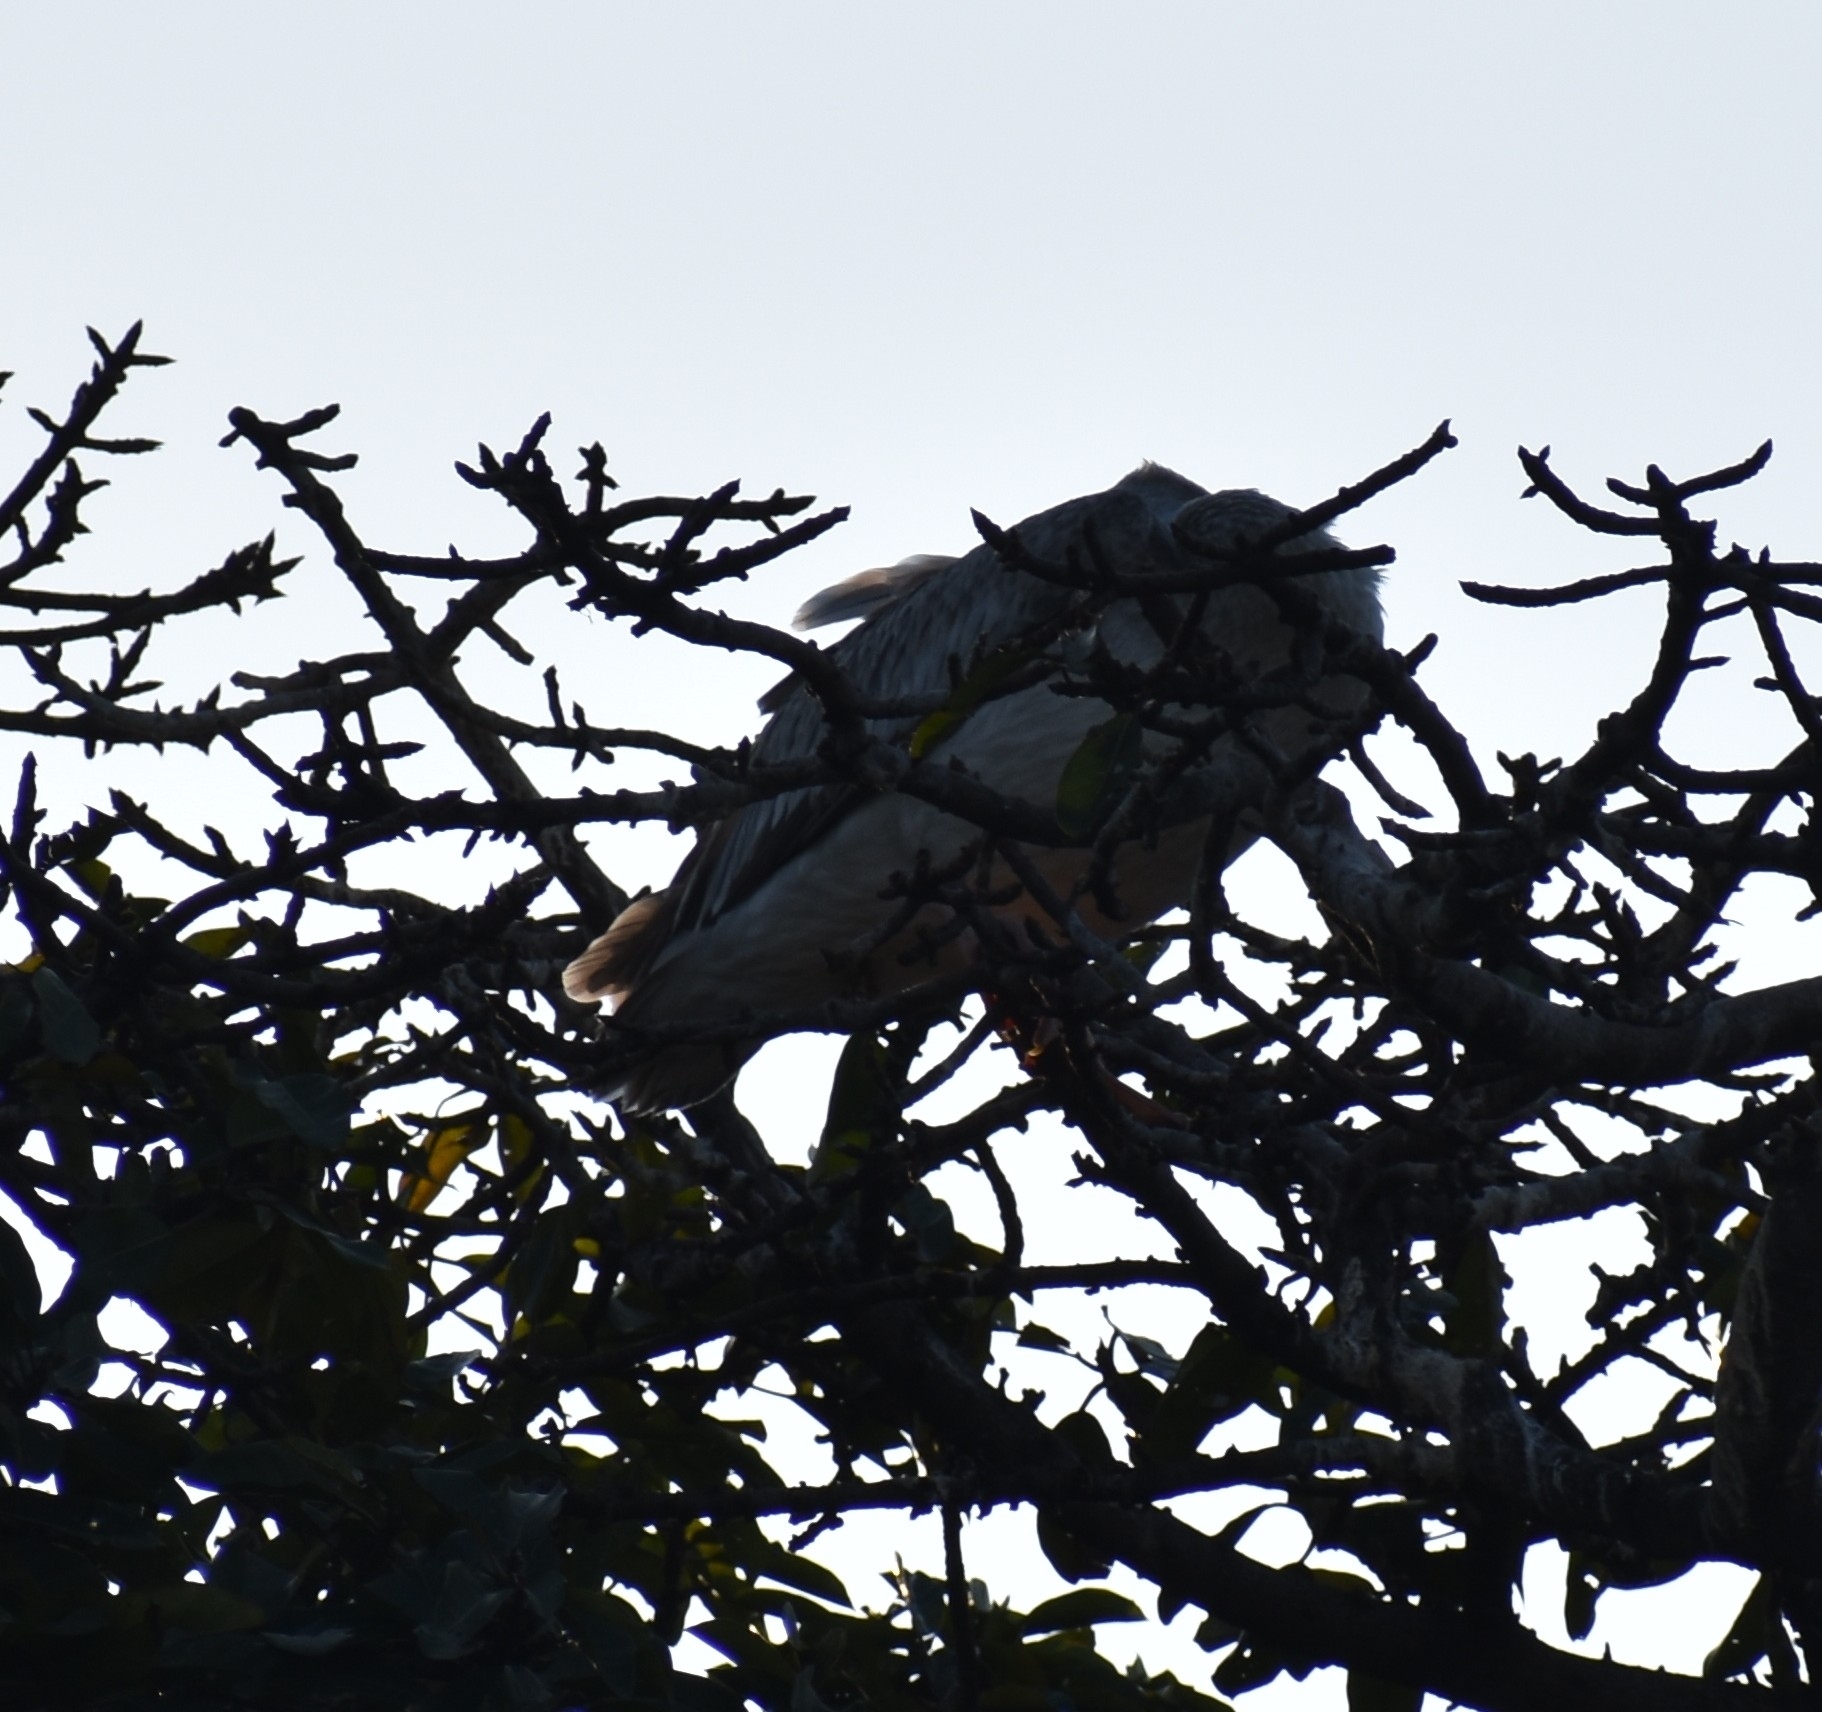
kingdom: Animalia
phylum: Chordata
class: Aves
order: Pelecaniformes
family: Pelecanidae
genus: Pelecanus
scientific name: Pelecanus rufescens
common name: Pink-backed pelican
